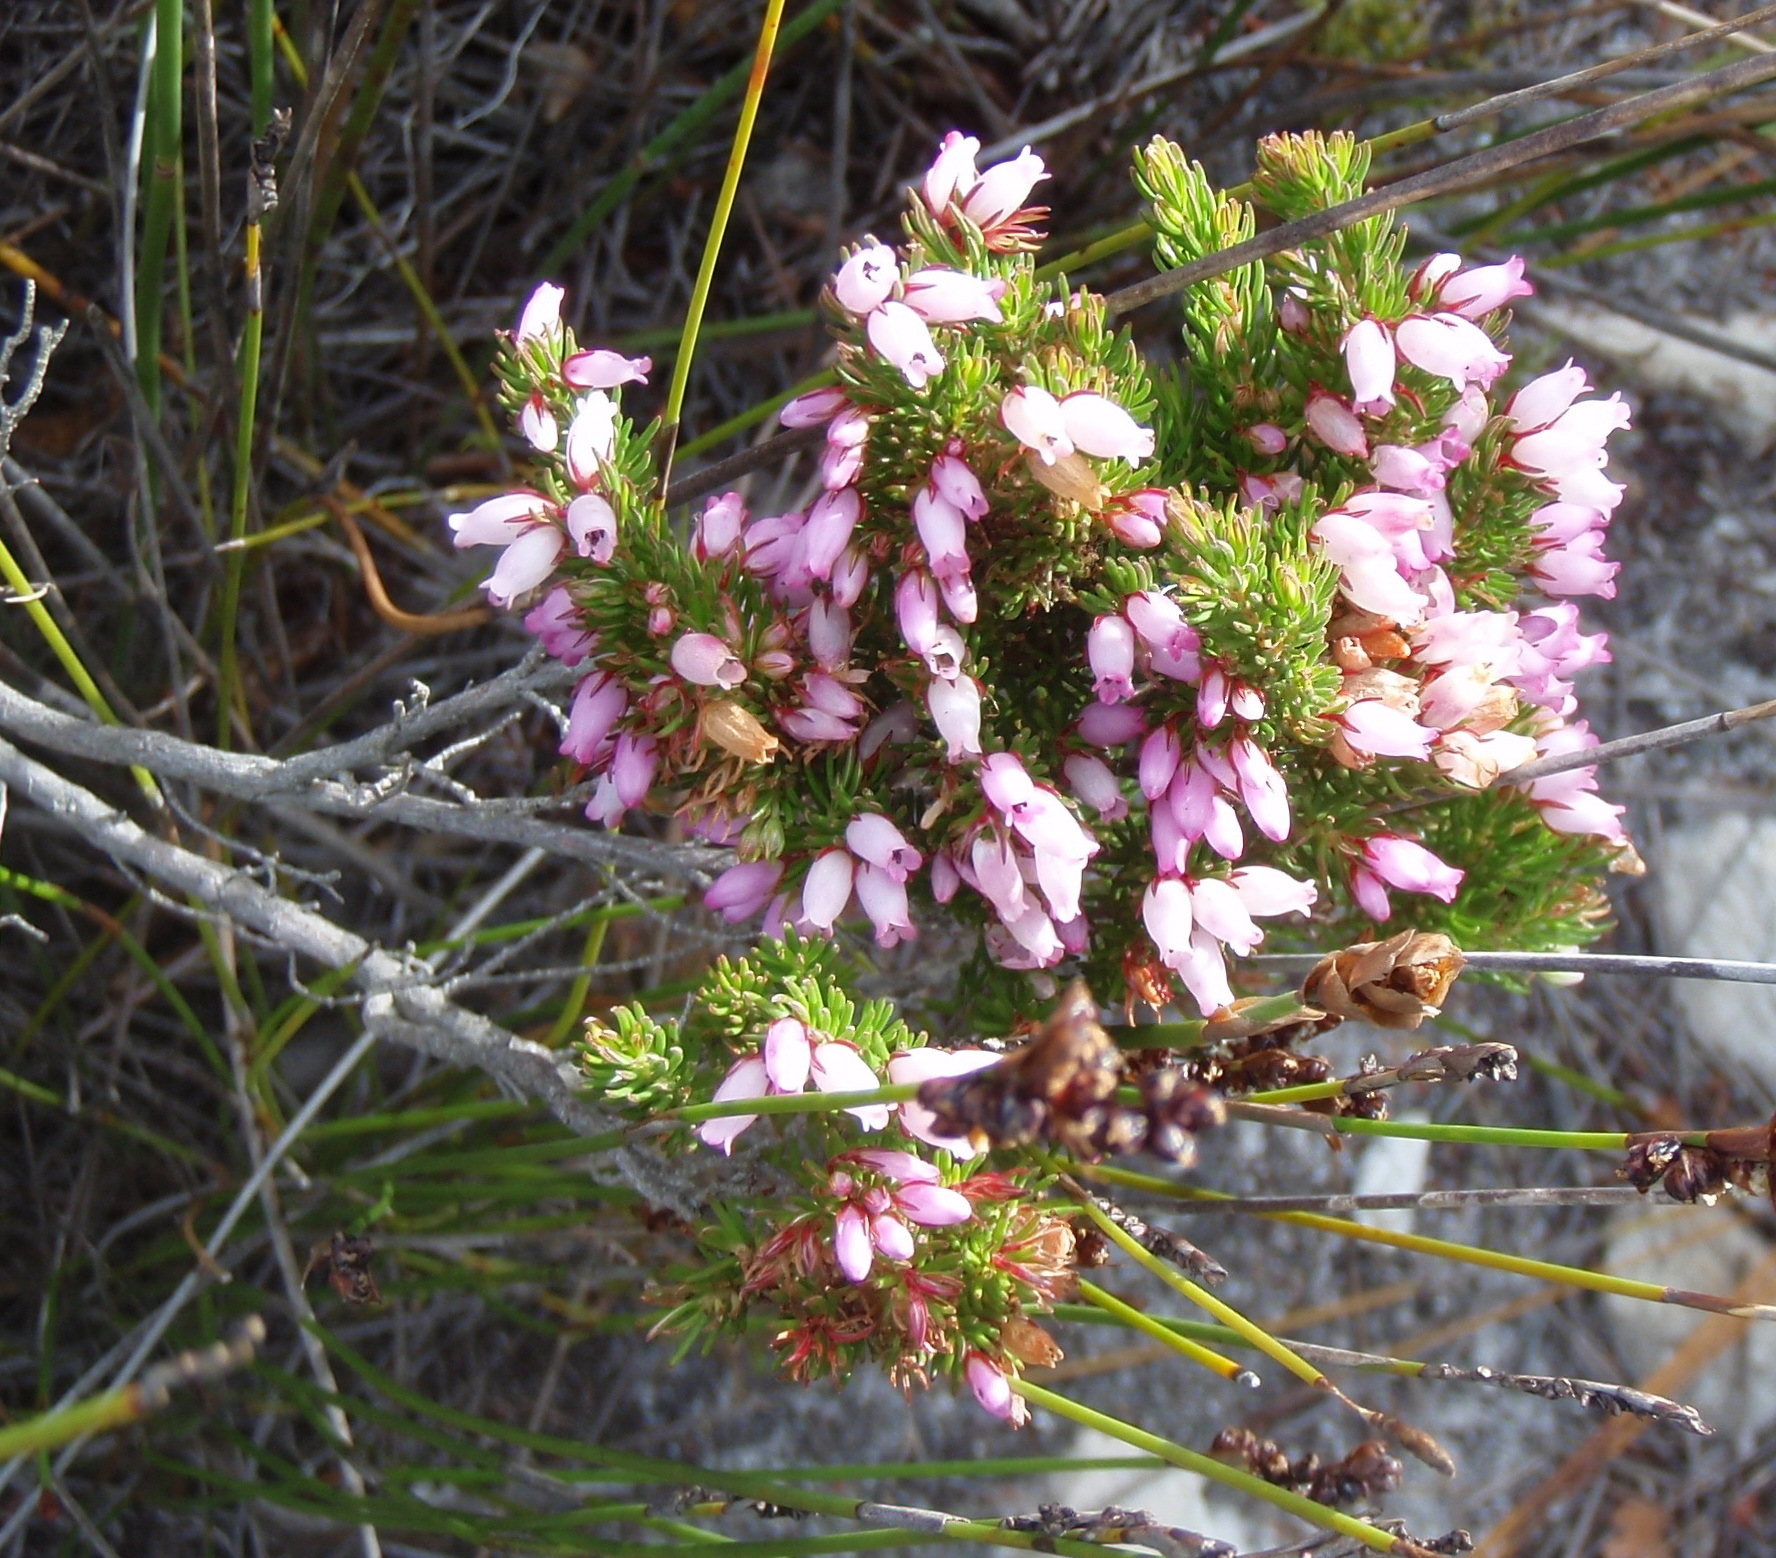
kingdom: Plantae
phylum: Tracheophyta
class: Magnoliopsida
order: Ericales
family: Ericaceae
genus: Erica
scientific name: Erica sitiens
